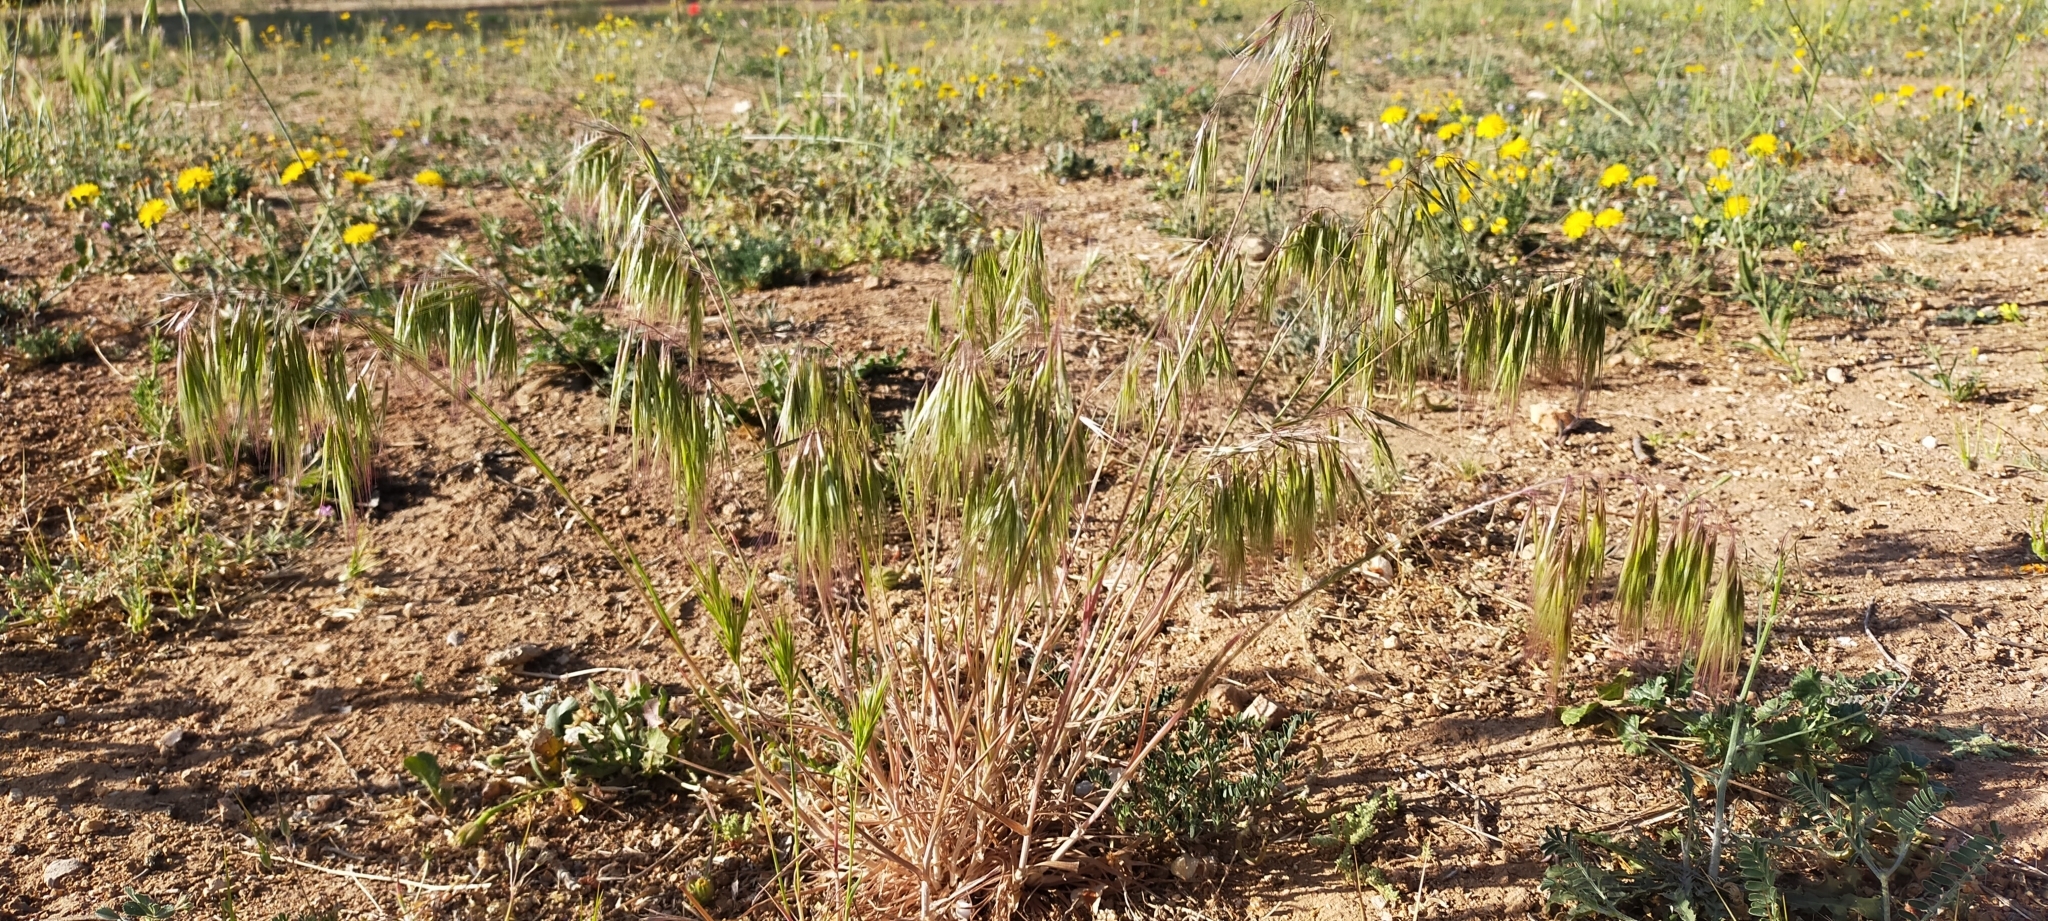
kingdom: Plantae
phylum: Tracheophyta
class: Liliopsida
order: Poales
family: Poaceae
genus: Bromus
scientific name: Bromus tectorum
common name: Cheatgrass
